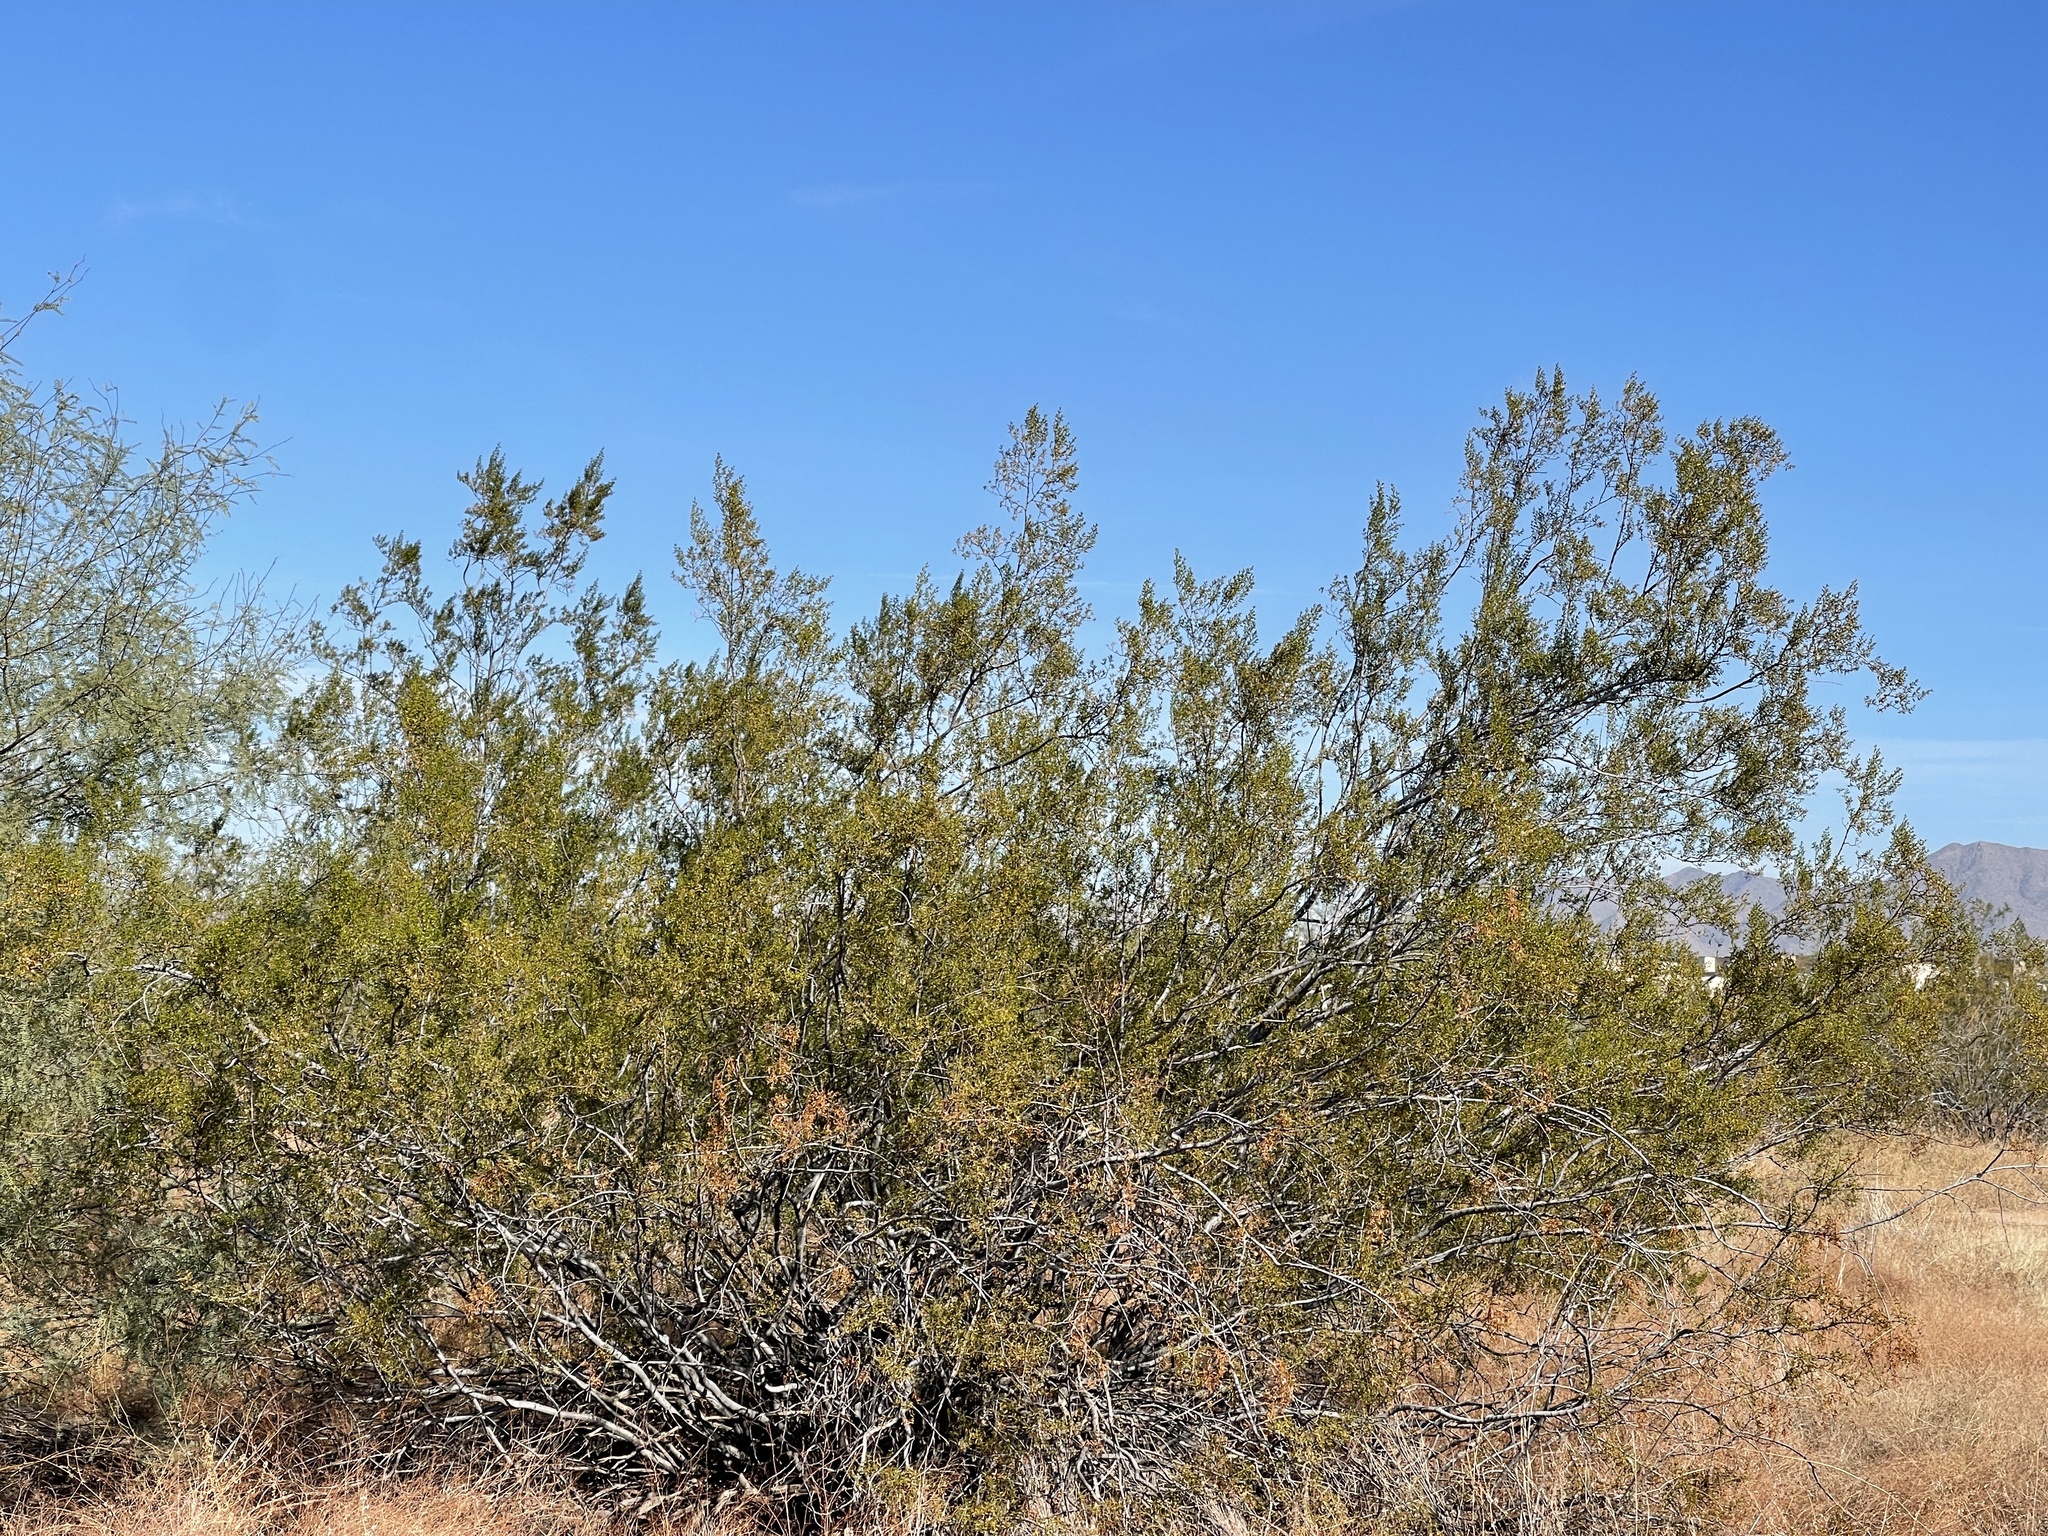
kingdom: Plantae
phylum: Tracheophyta
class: Magnoliopsida
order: Zygophyllales
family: Zygophyllaceae
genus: Larrea
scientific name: Larrea tridentata
